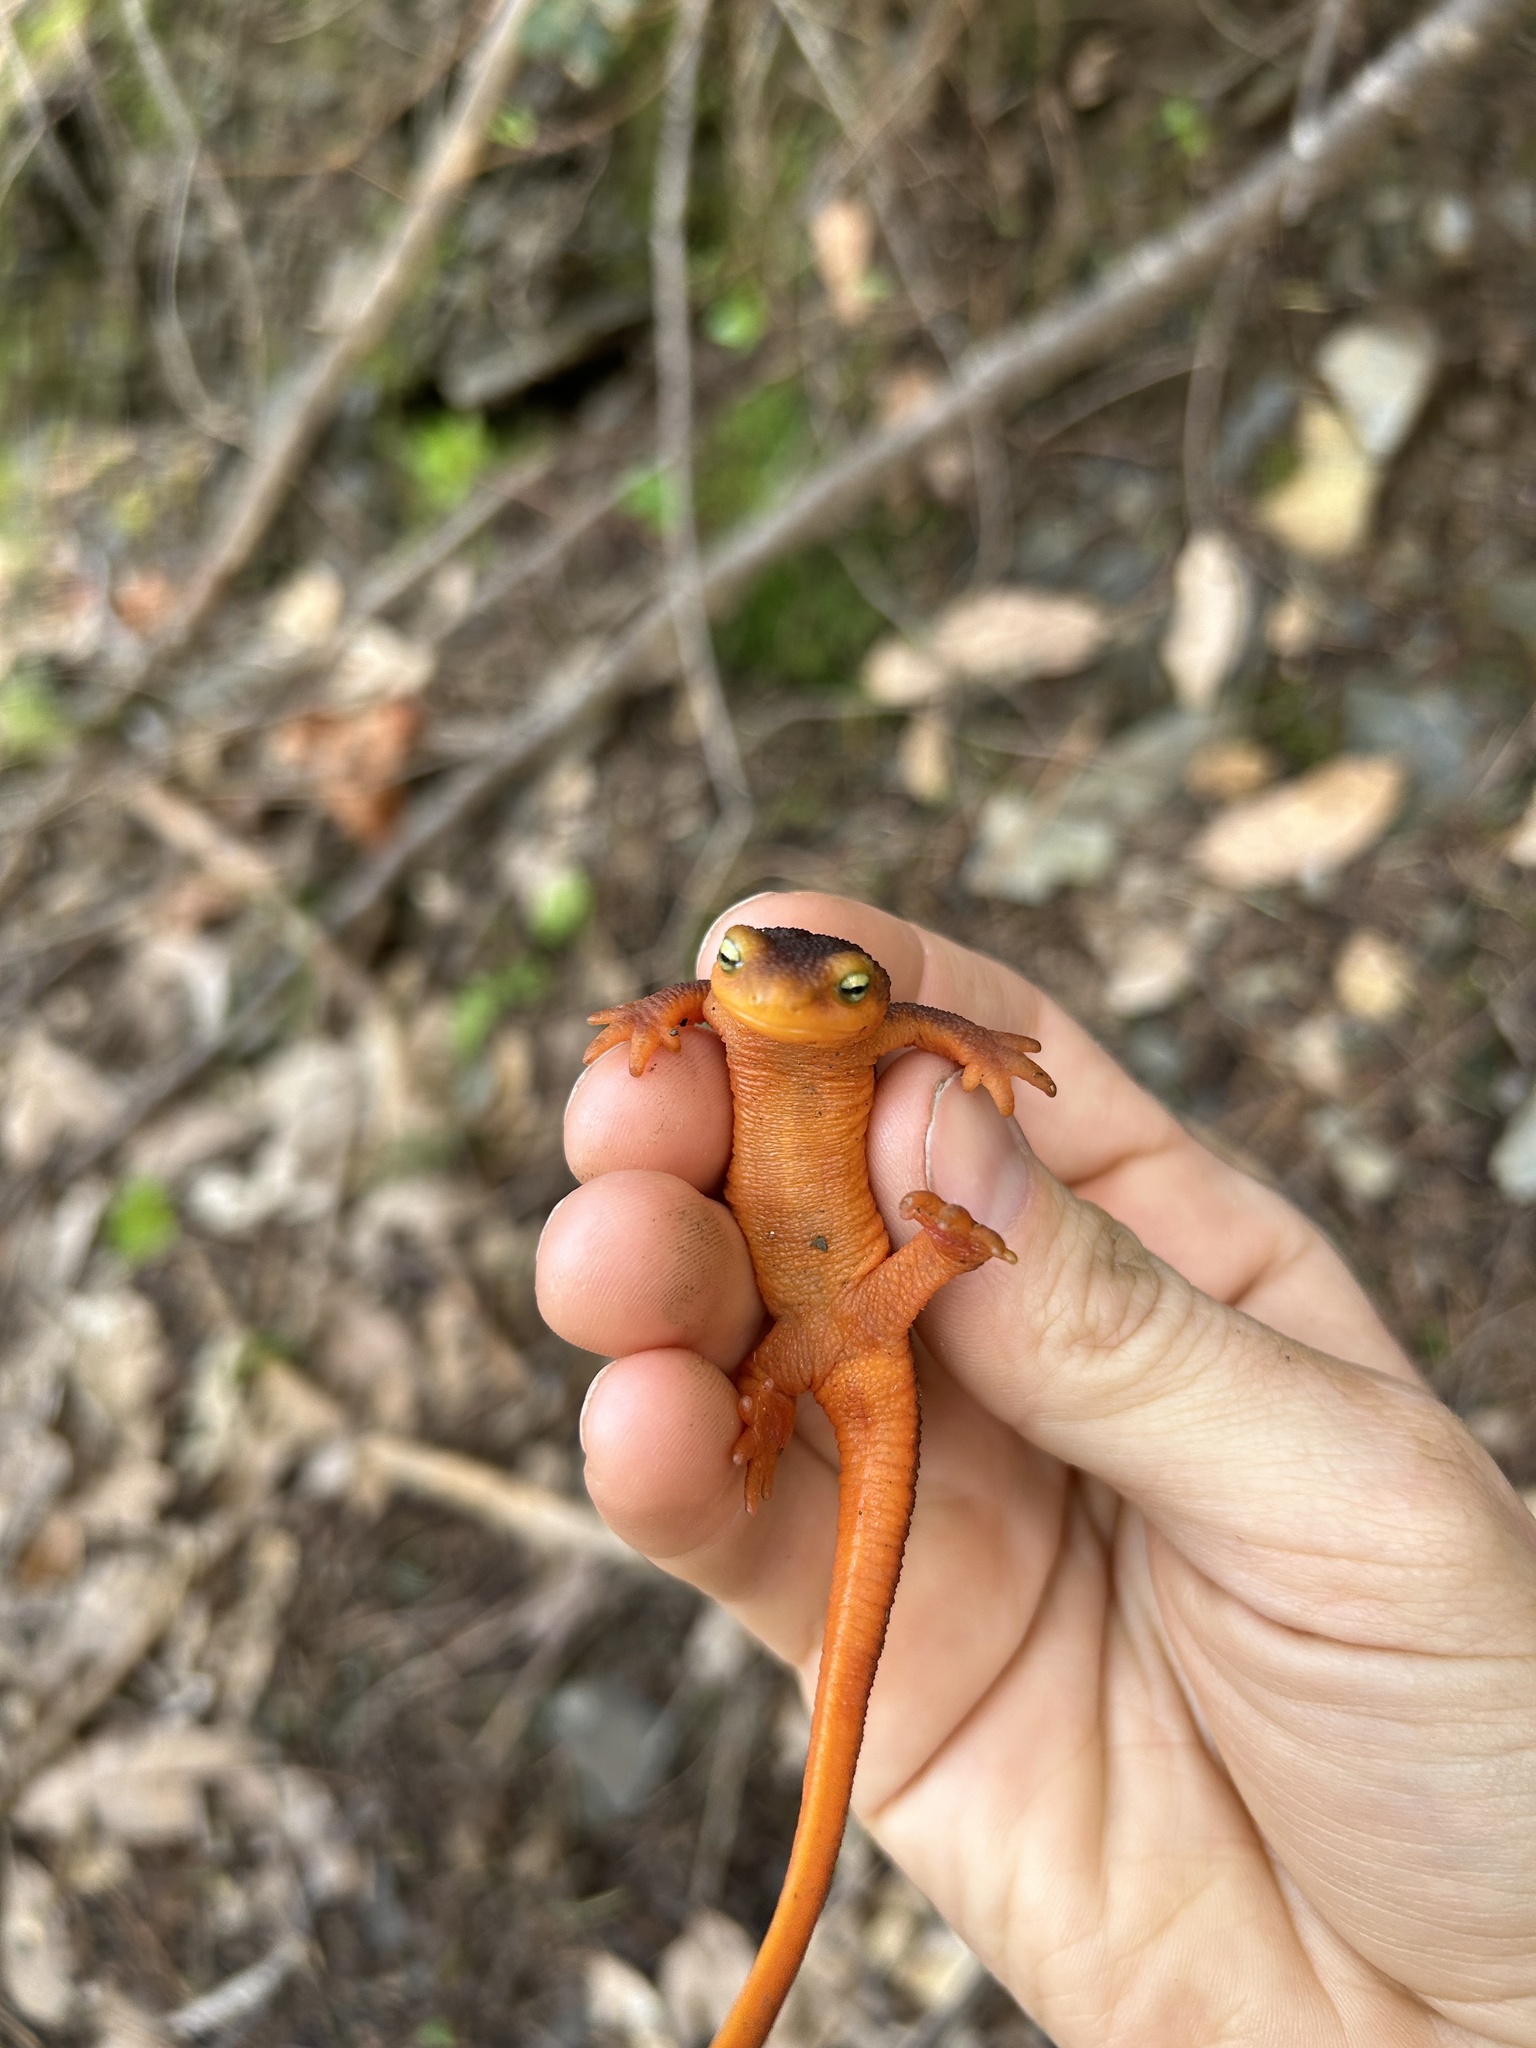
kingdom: Animalia
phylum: Chordata
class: Amphibia
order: Caudata
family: Salamandridae
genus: Taricha
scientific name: Taricha sierrae
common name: Sierra newt
